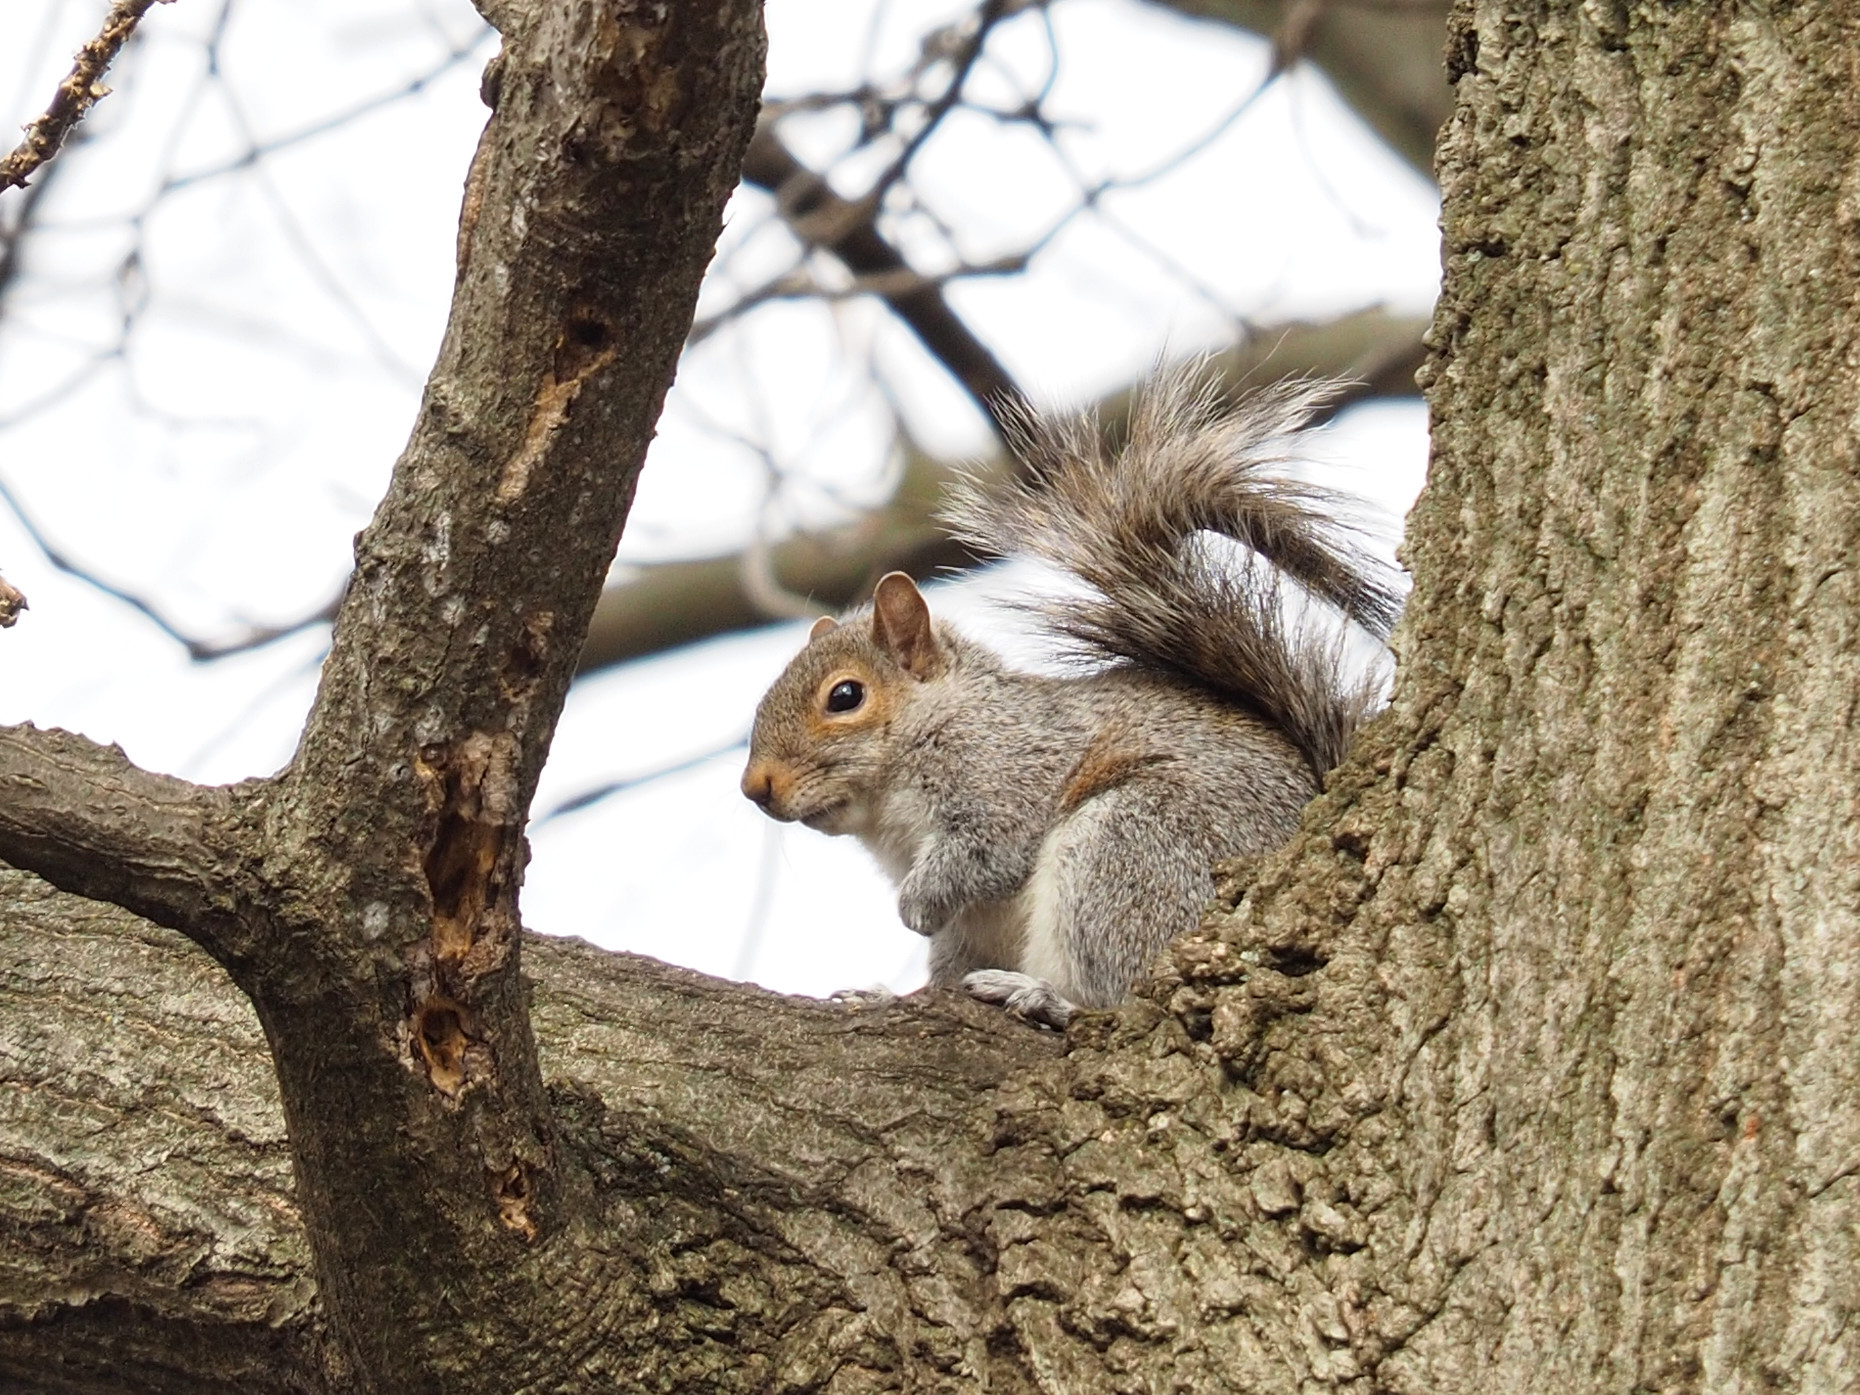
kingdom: Animalia
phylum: Chordata
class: Mammalia
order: Rodentia
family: Sciuridae
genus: Sciurus
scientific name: Sciurus carolinensis
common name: Eastern gray squirrel
